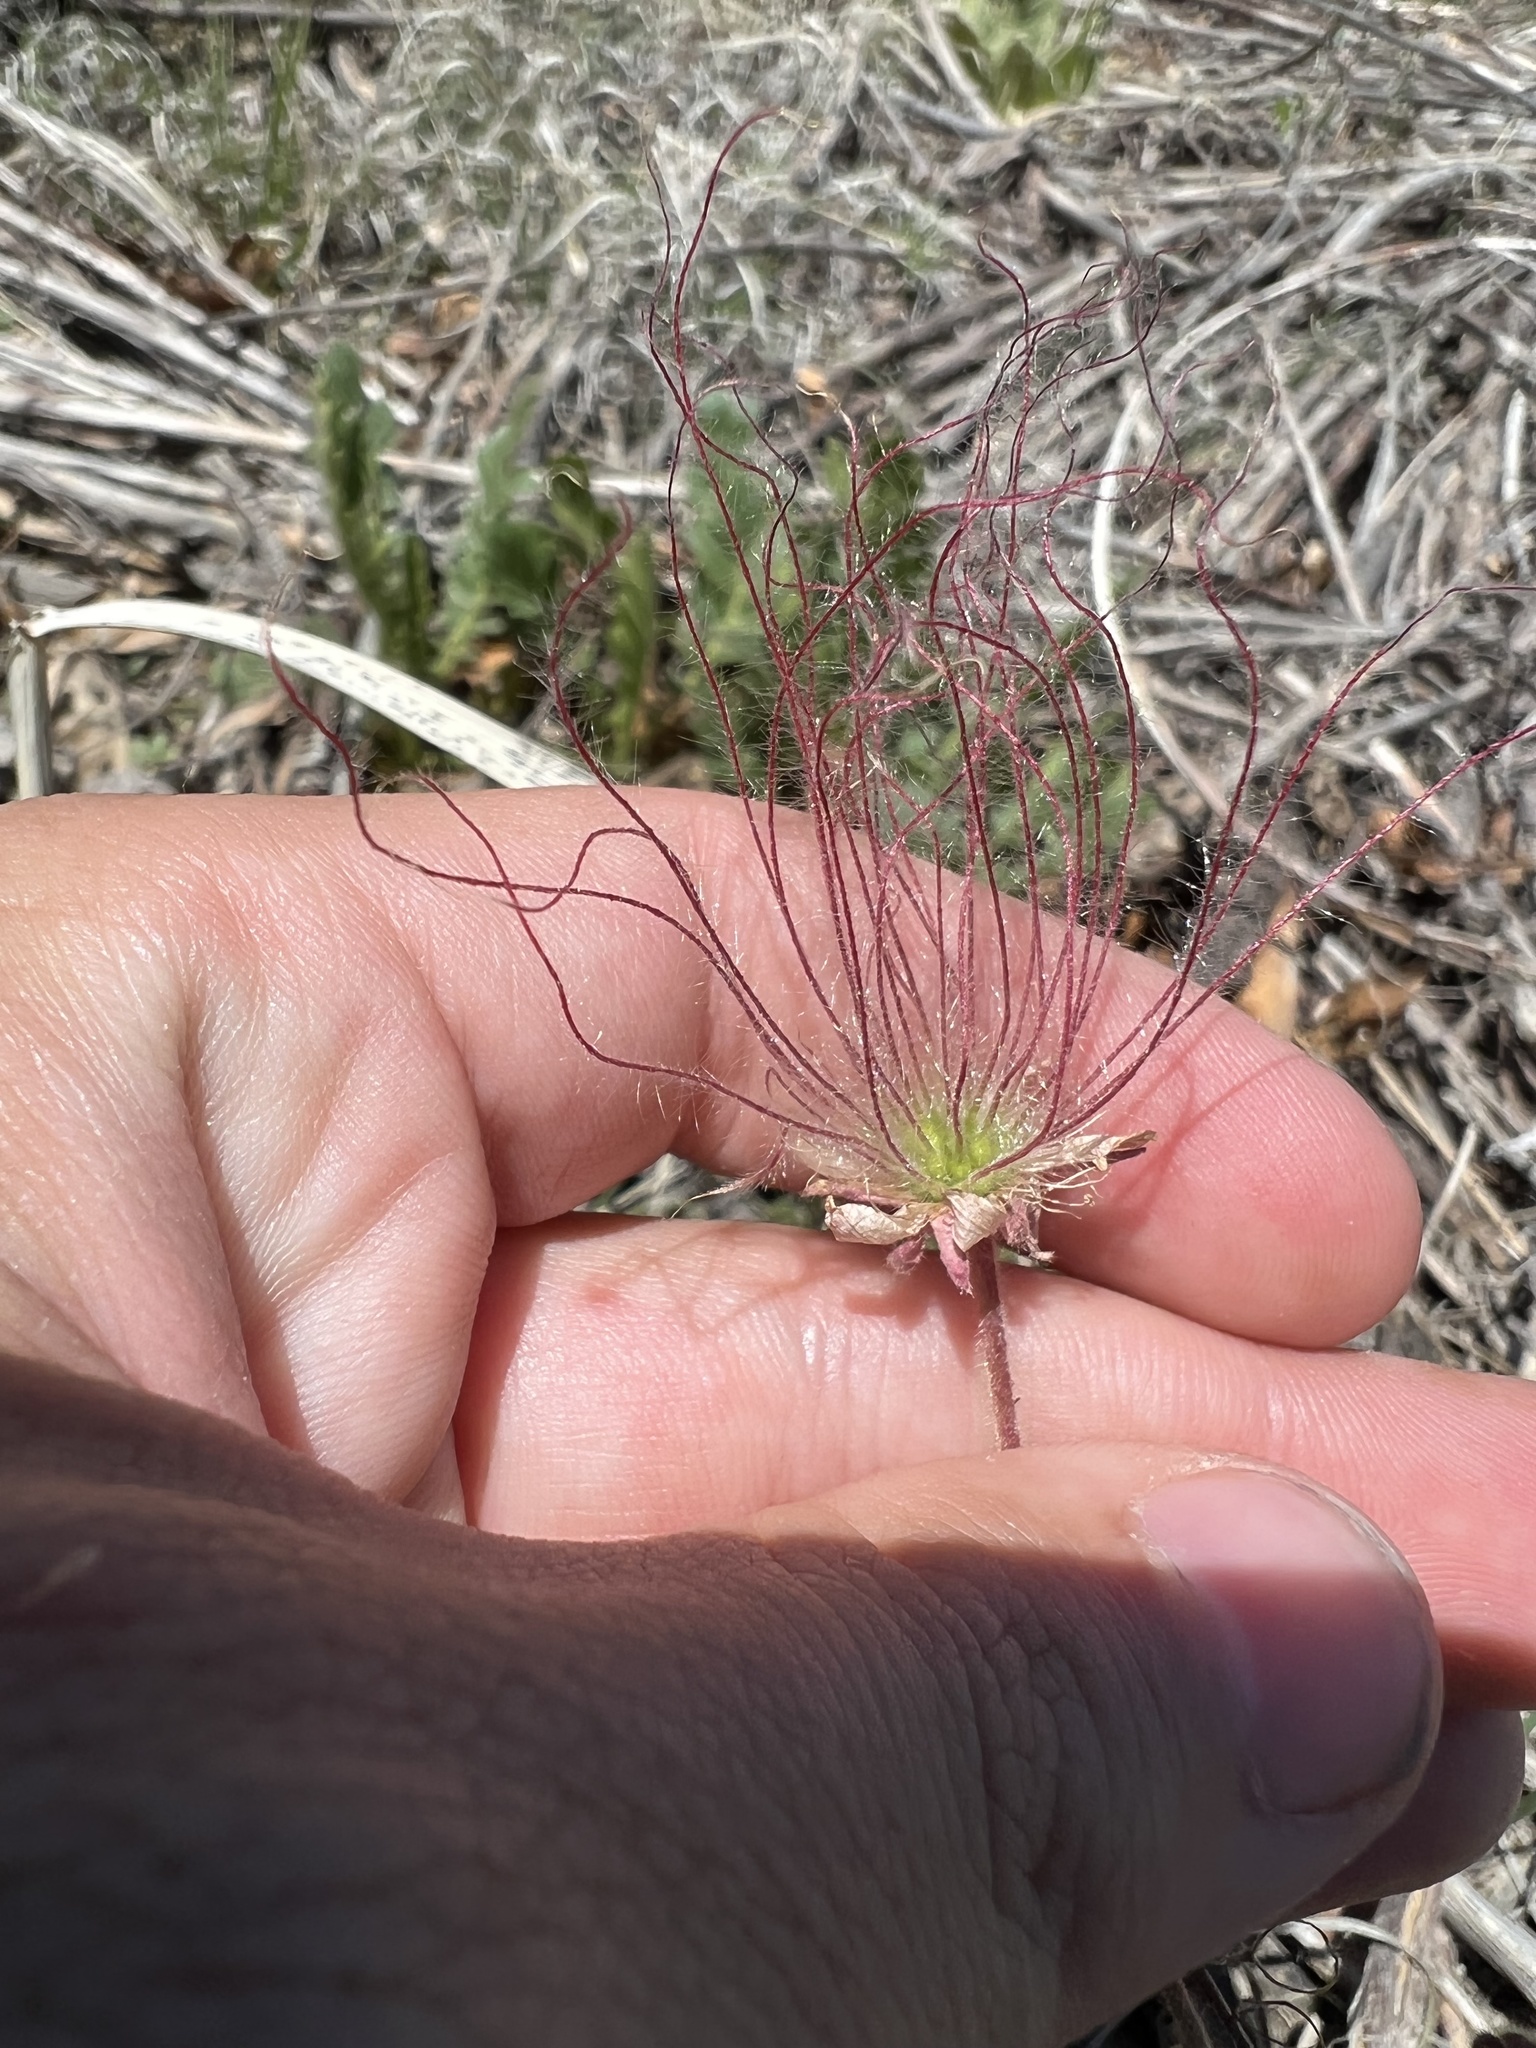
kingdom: Plantae
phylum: Tracheophyta
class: Magnoliopsida
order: Rosales
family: Rosaceae
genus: Geum
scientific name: Geum triflorum
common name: Old man's whiskers
